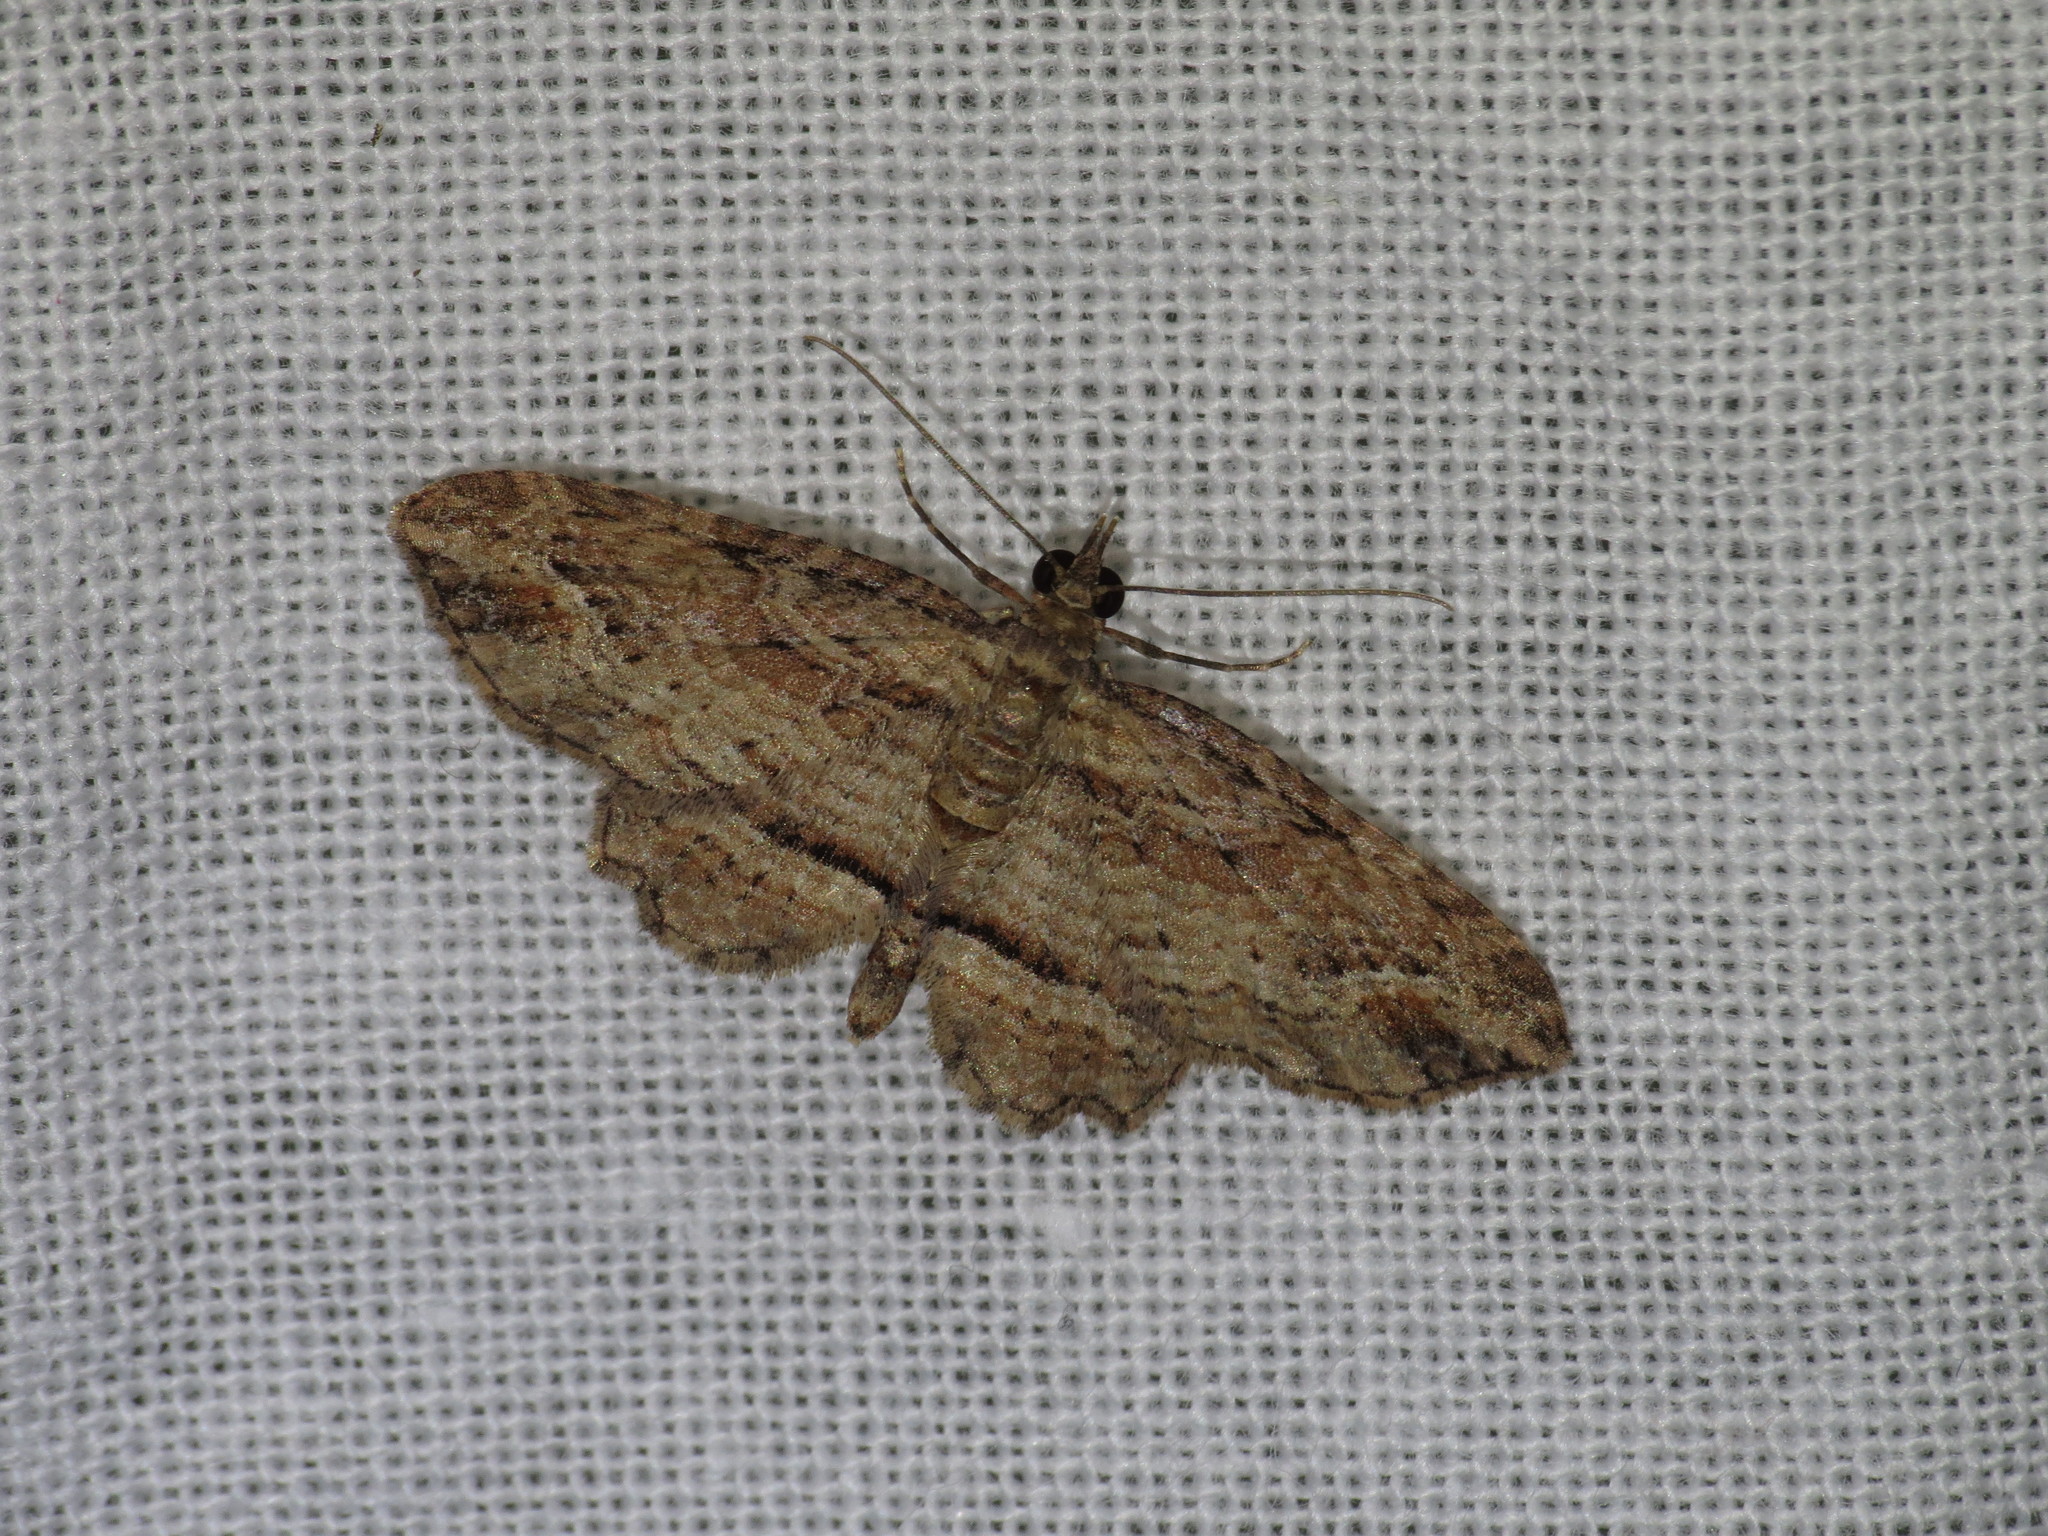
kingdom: Animalia
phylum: Arthropoda
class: Insecta
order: Lepidoptera
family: Geometridae
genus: Chloroclystis
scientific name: Chloroclystis filata
